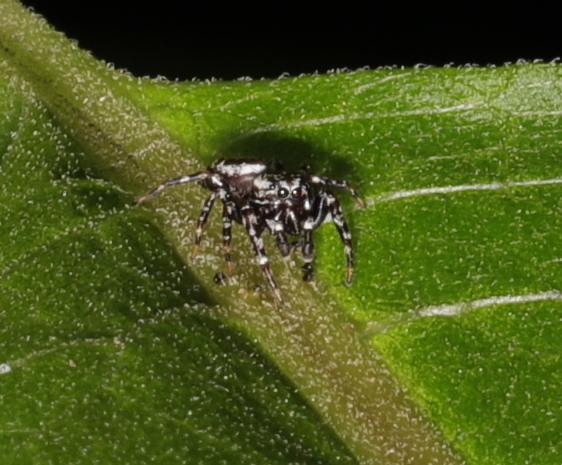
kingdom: Animalia
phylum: Arthropoda
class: Arachnida
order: Araneae
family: Salticidae
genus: Pelegrina
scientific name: Pelegrina galathea
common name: Jumping spiders
